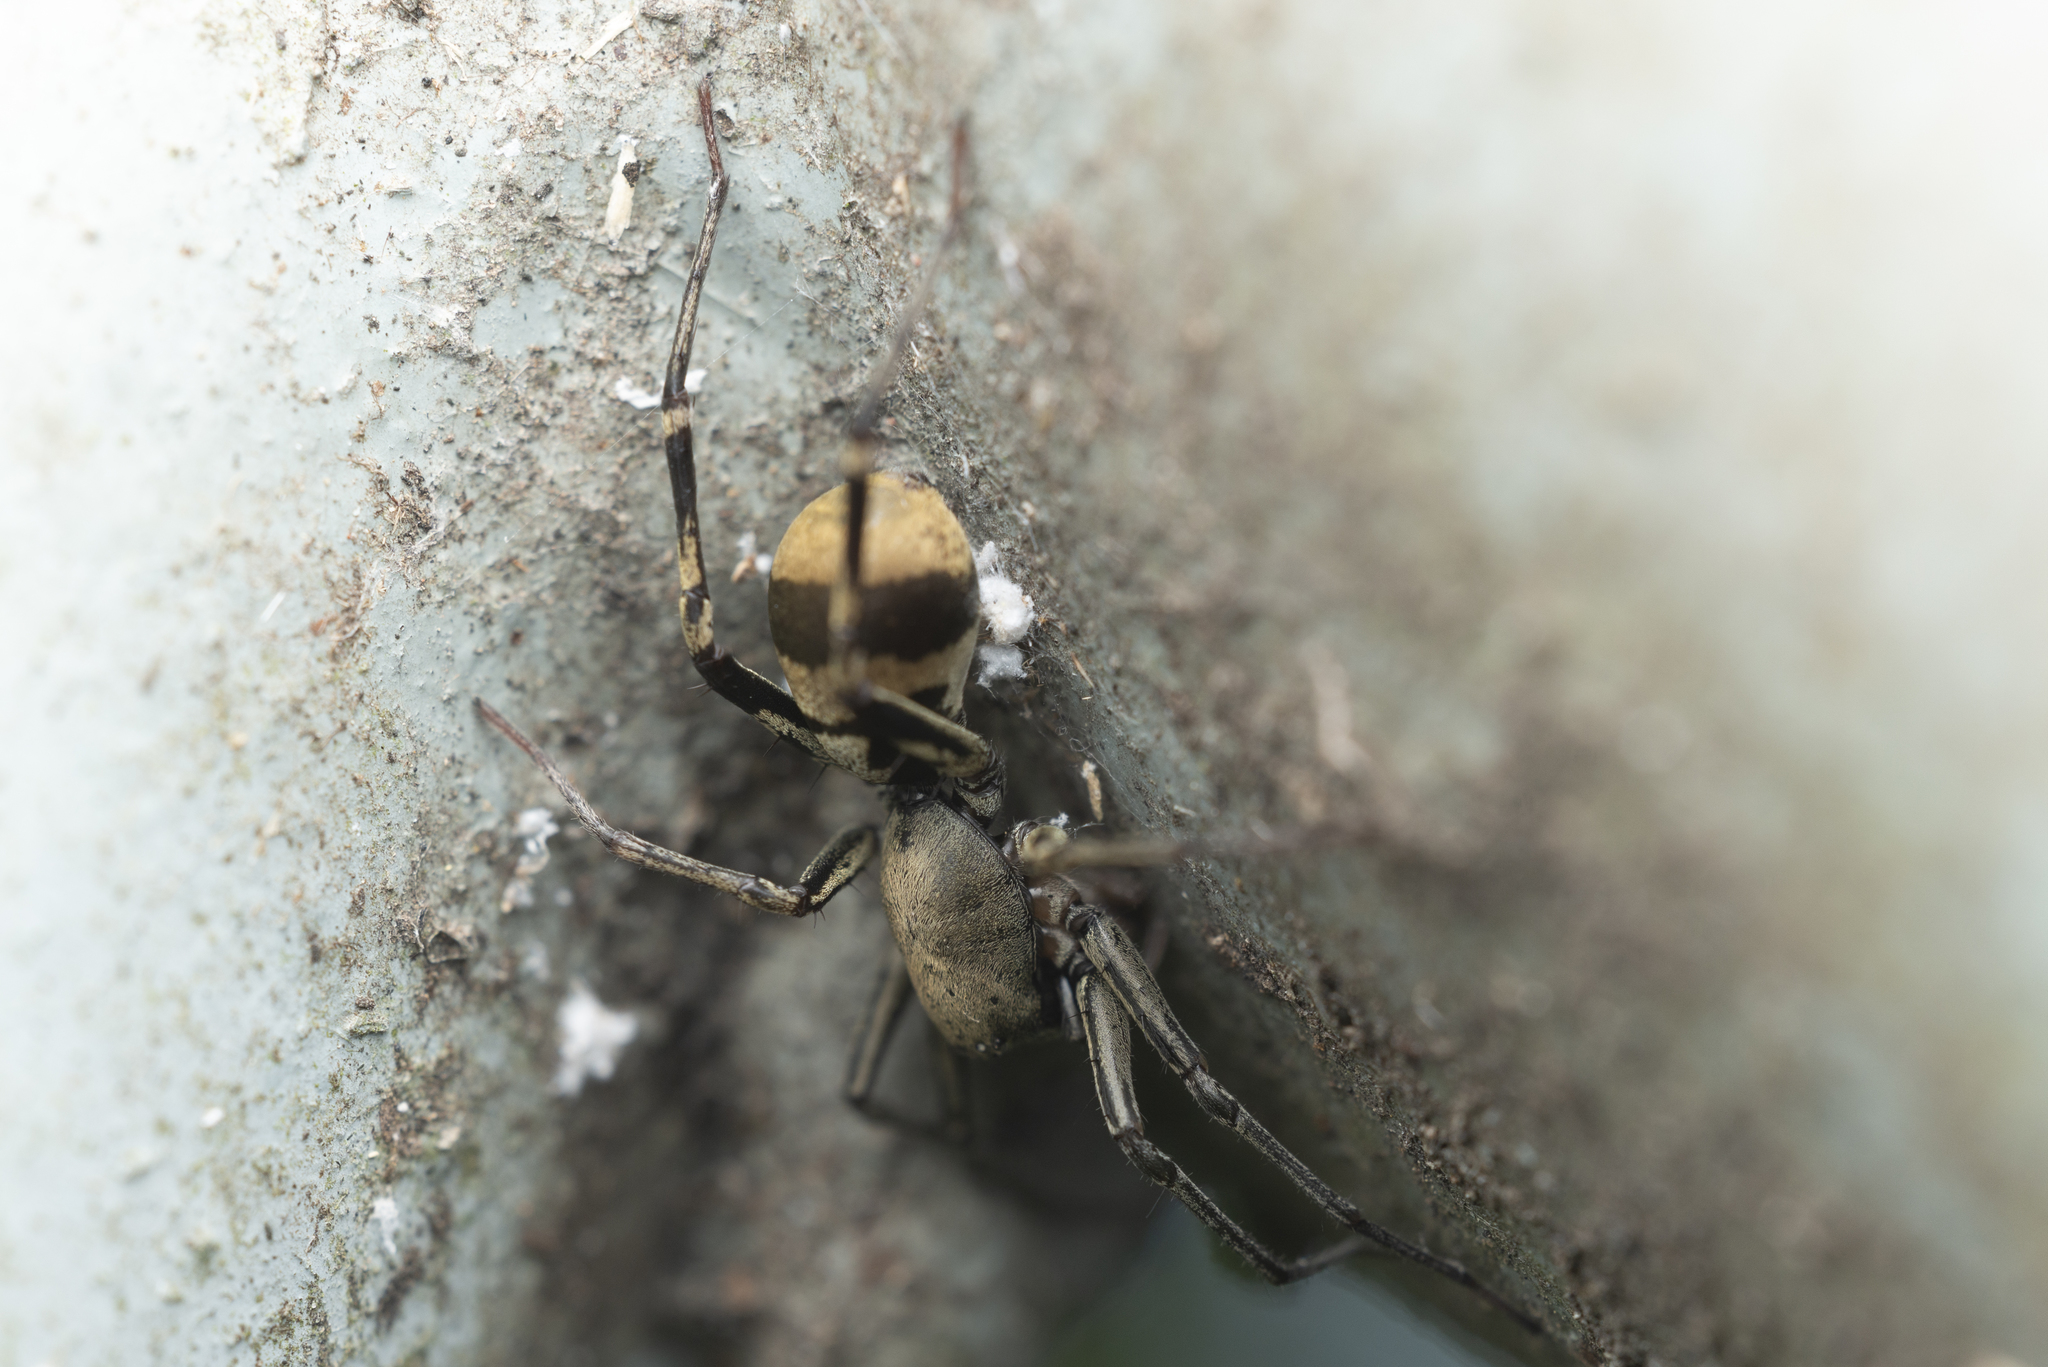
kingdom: Animalia
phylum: Arthropoda
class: Arachnida
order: Araneae
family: Corinnidae
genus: Corinnomma
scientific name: Corinnomma severum
